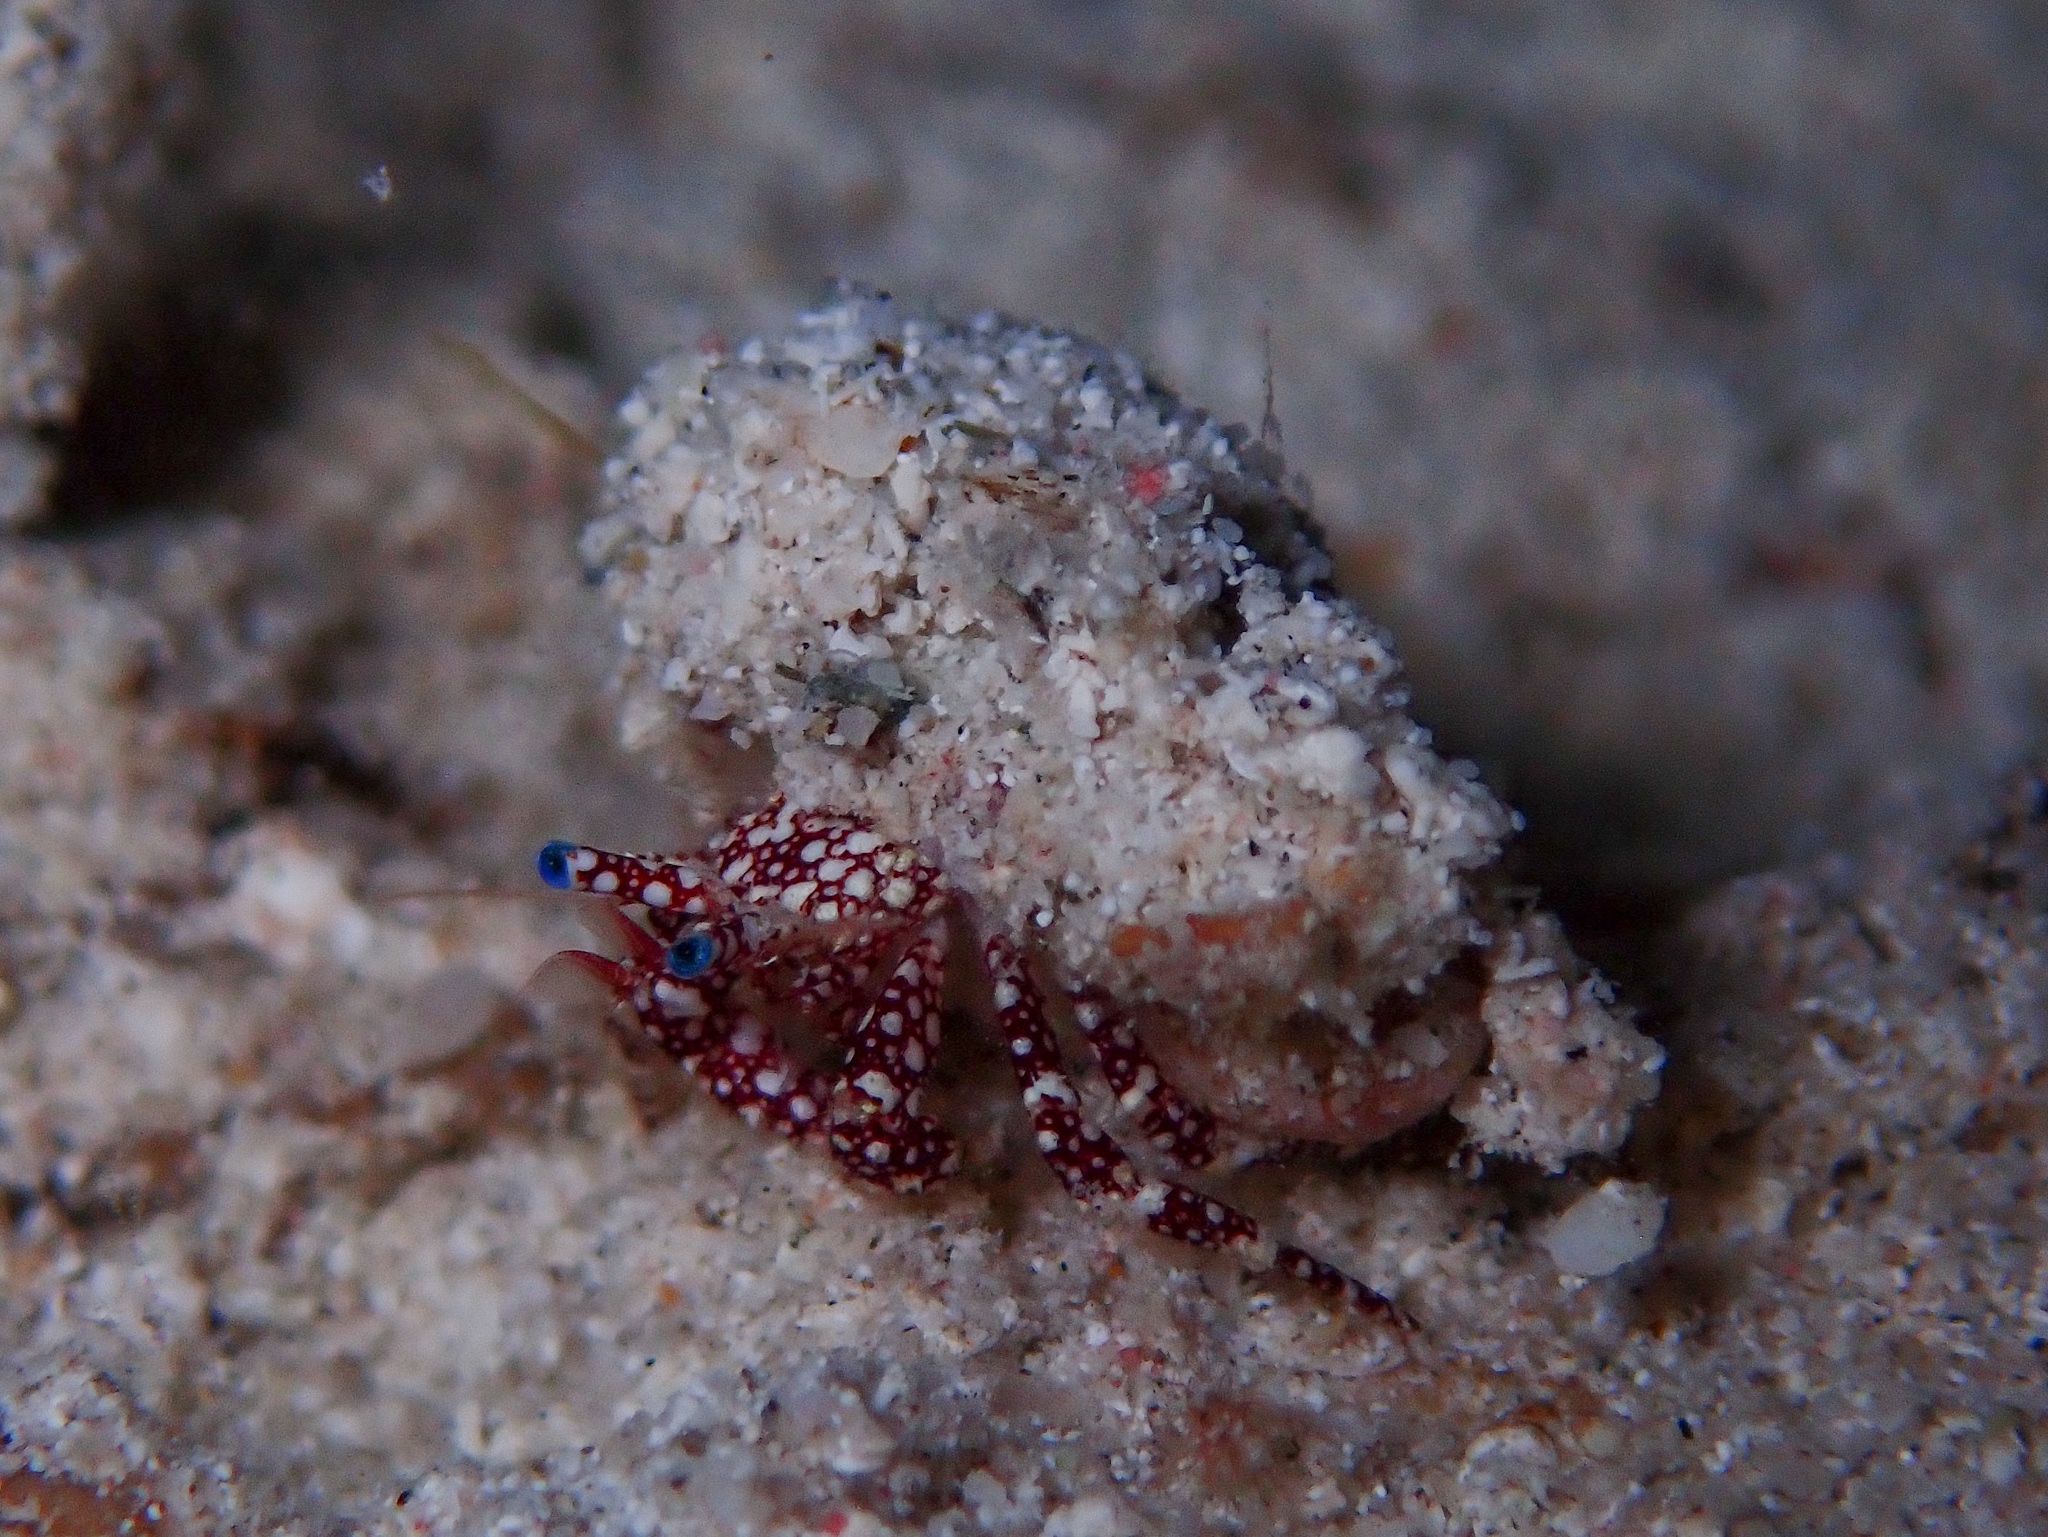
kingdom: Animalia
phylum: Arthropoda
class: Malacostraca
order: Decapoda
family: Diogenidae
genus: Paguristes
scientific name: Paguristes puncticeps
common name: White speckled hermit
